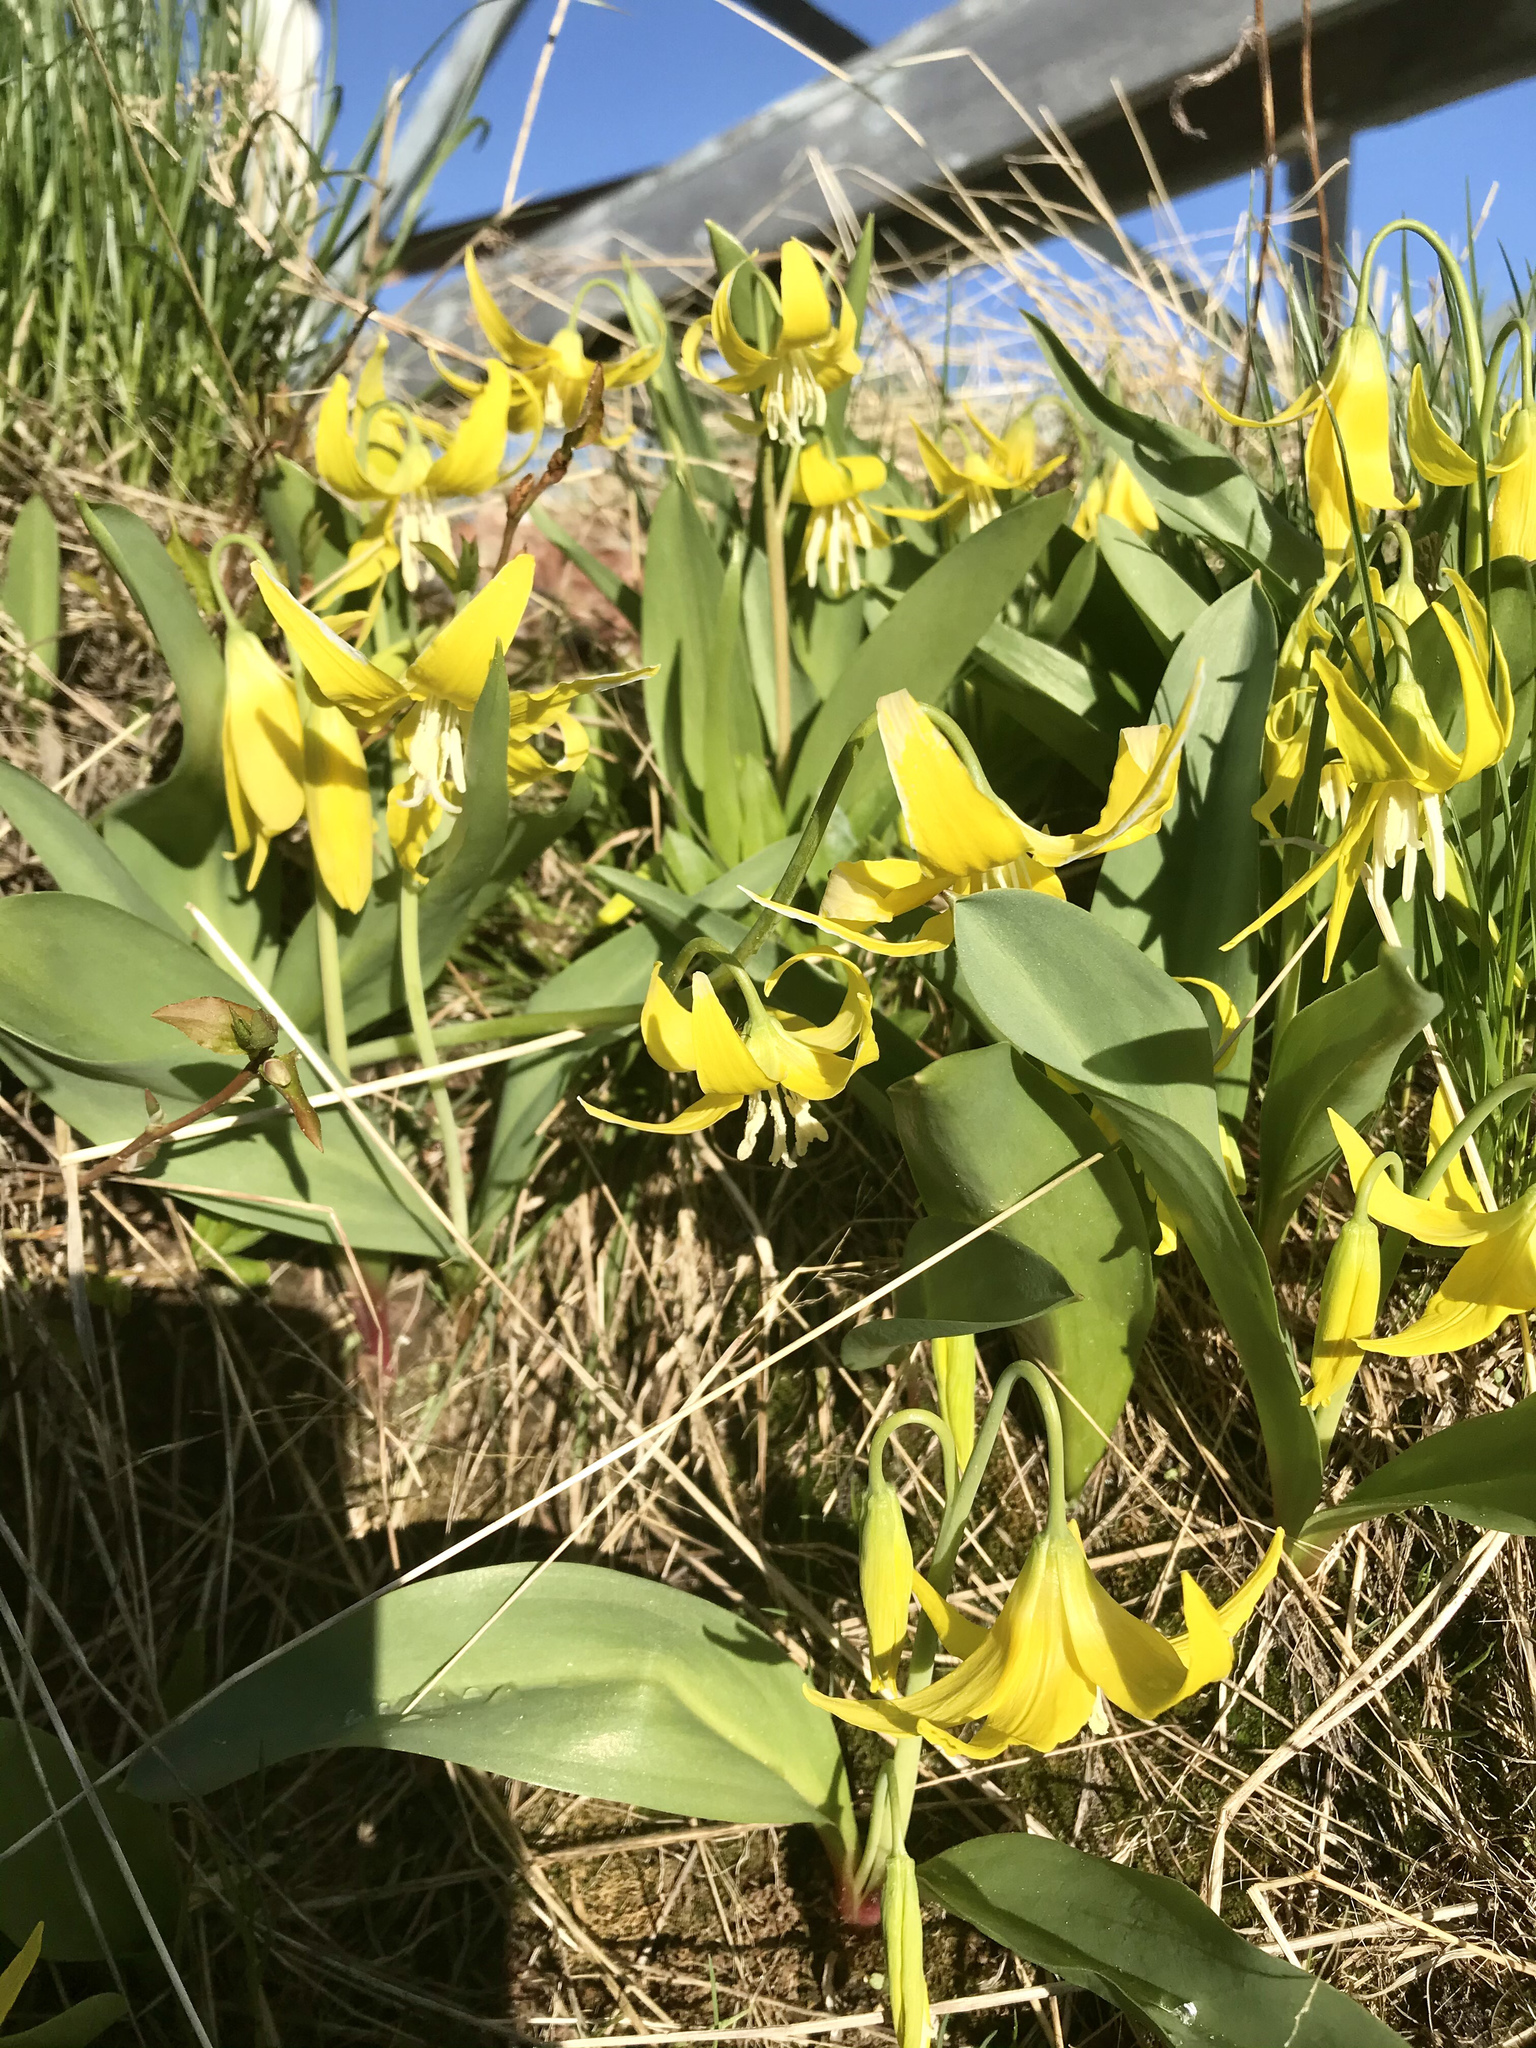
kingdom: Plantae
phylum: Tracheophyta
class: Liliopsida
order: Liliales
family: Liliaceae
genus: Erythronium
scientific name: Erythronium grandiflorum
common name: Avalanche-lily
